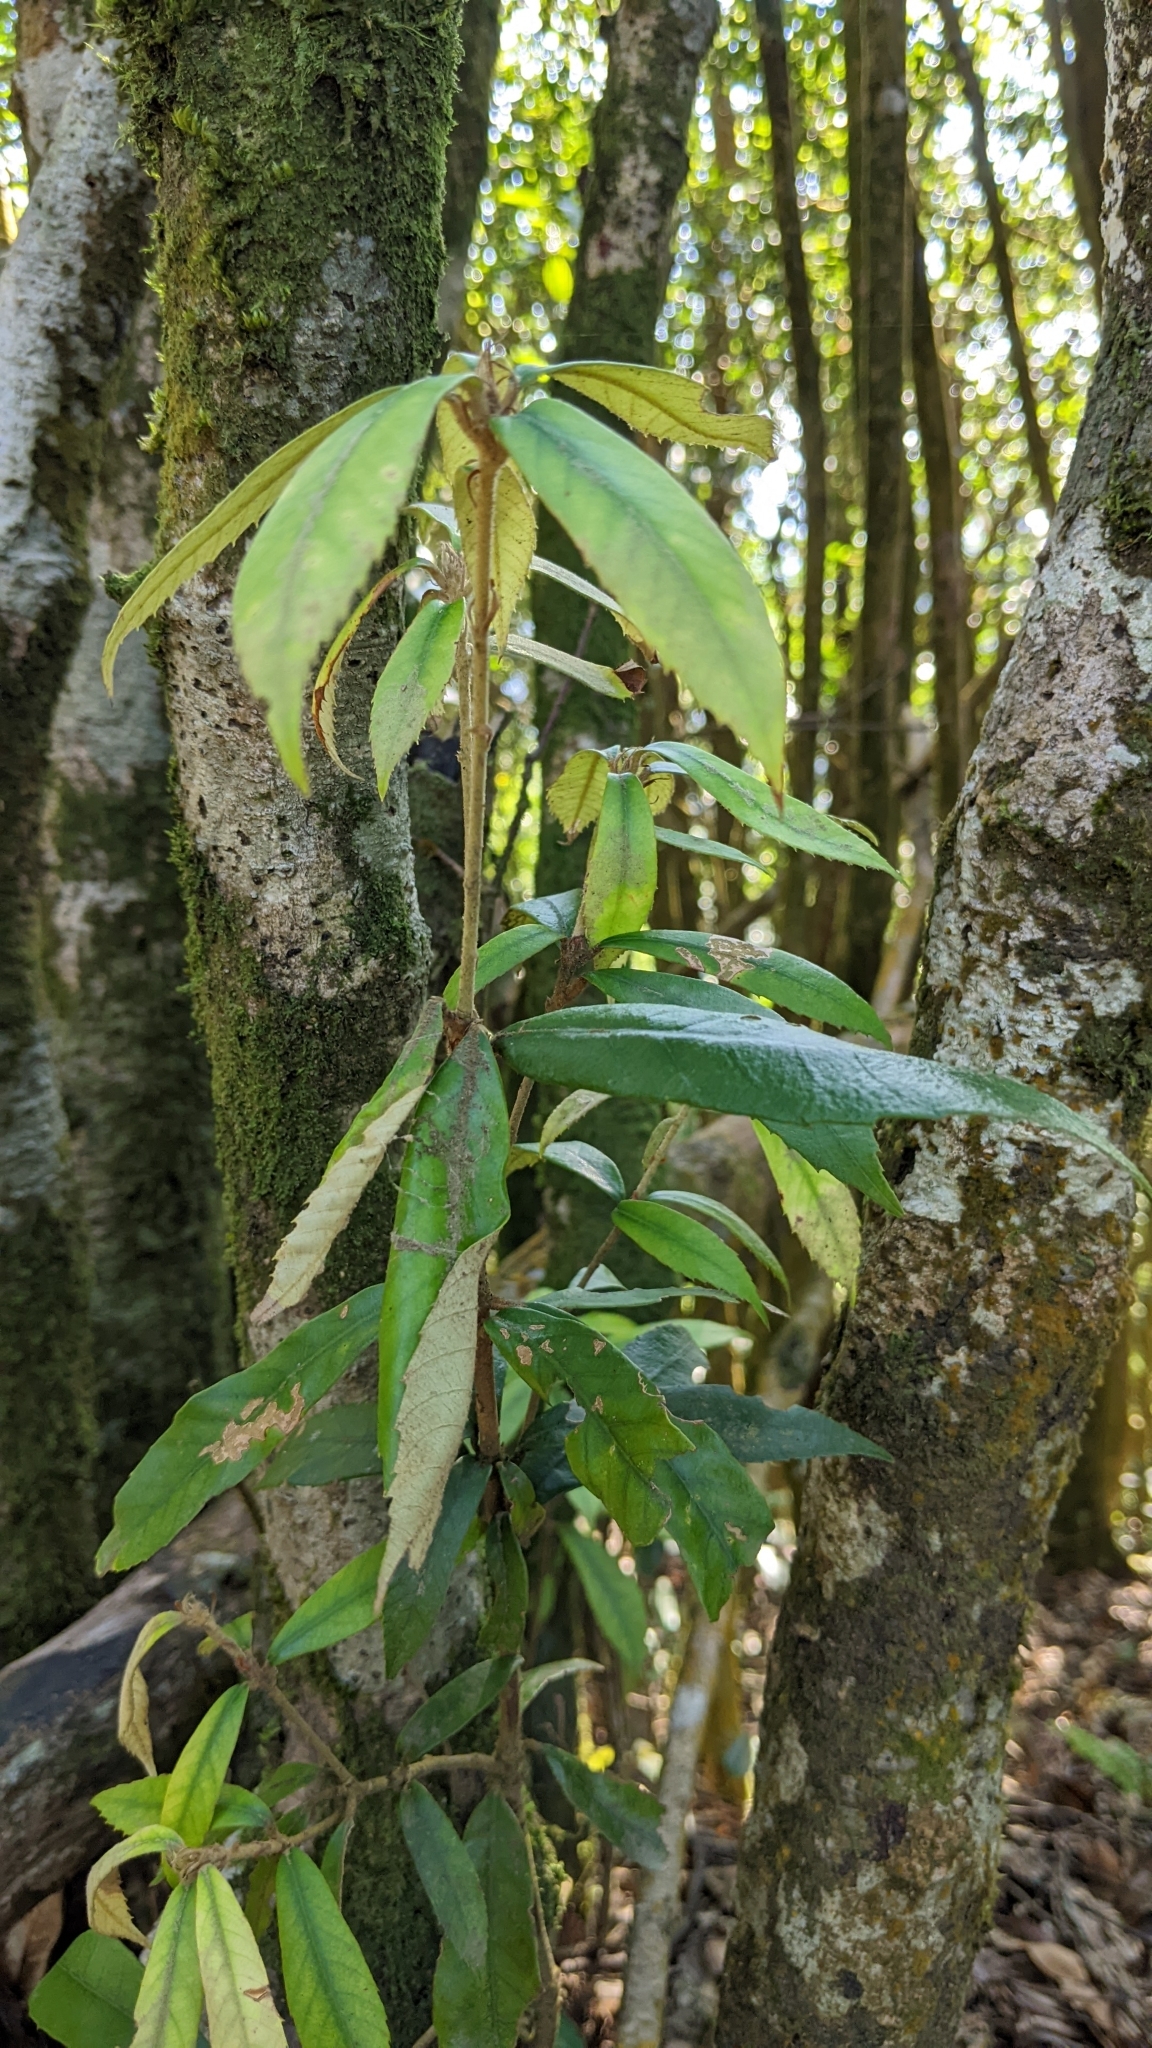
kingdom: Plantae
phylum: Tracheophyta
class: Magnoliopsida
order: Fagales
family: Fagaceae
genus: Quercus
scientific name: Quercus gilva
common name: Redbark oak
